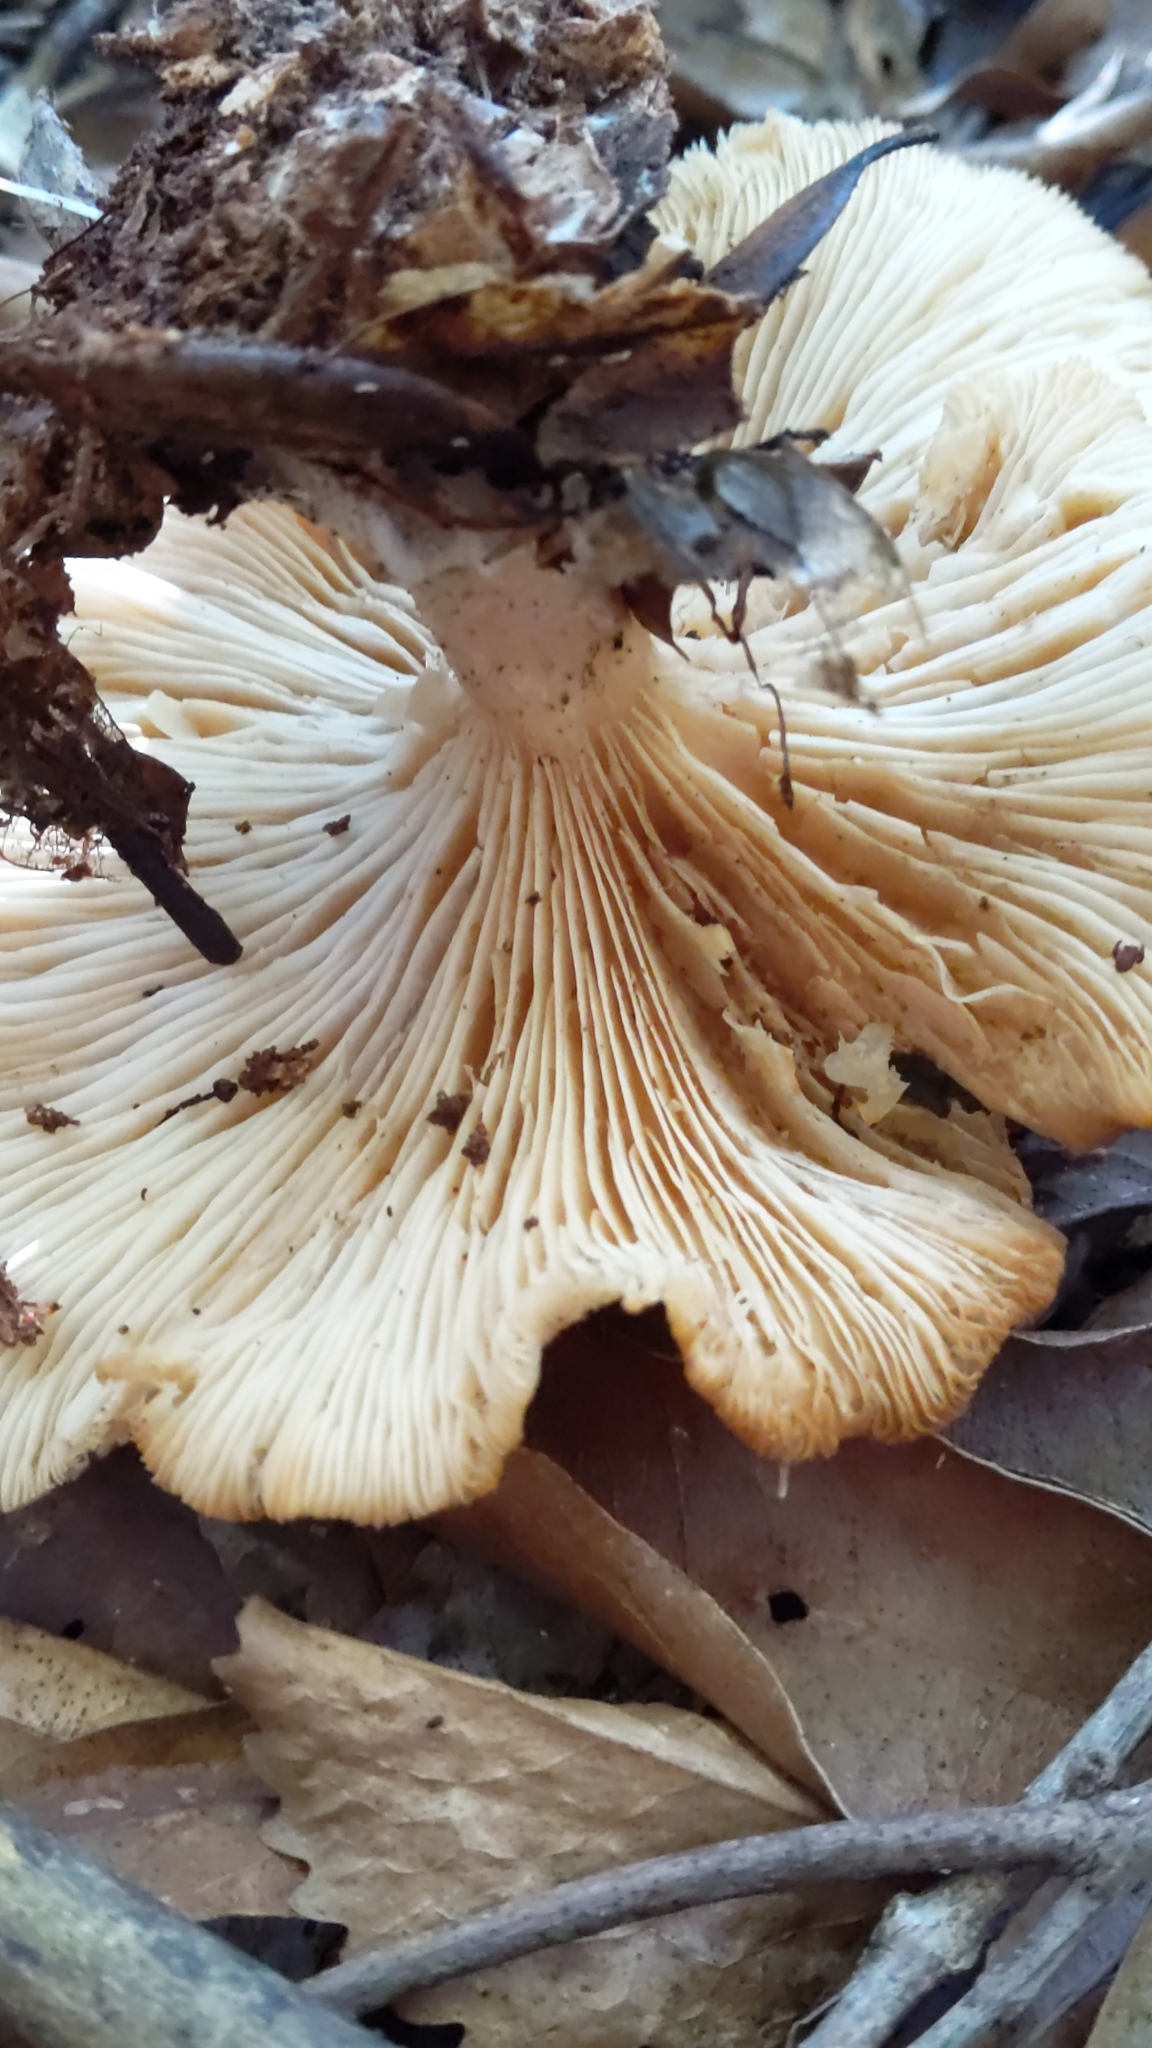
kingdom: Fungi
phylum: Basidiomycota
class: Agaricomycetes
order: Agaricales
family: Tricholomataceae
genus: Clitocybe
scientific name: Clitocybe nebularis
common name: Clouded agaric
